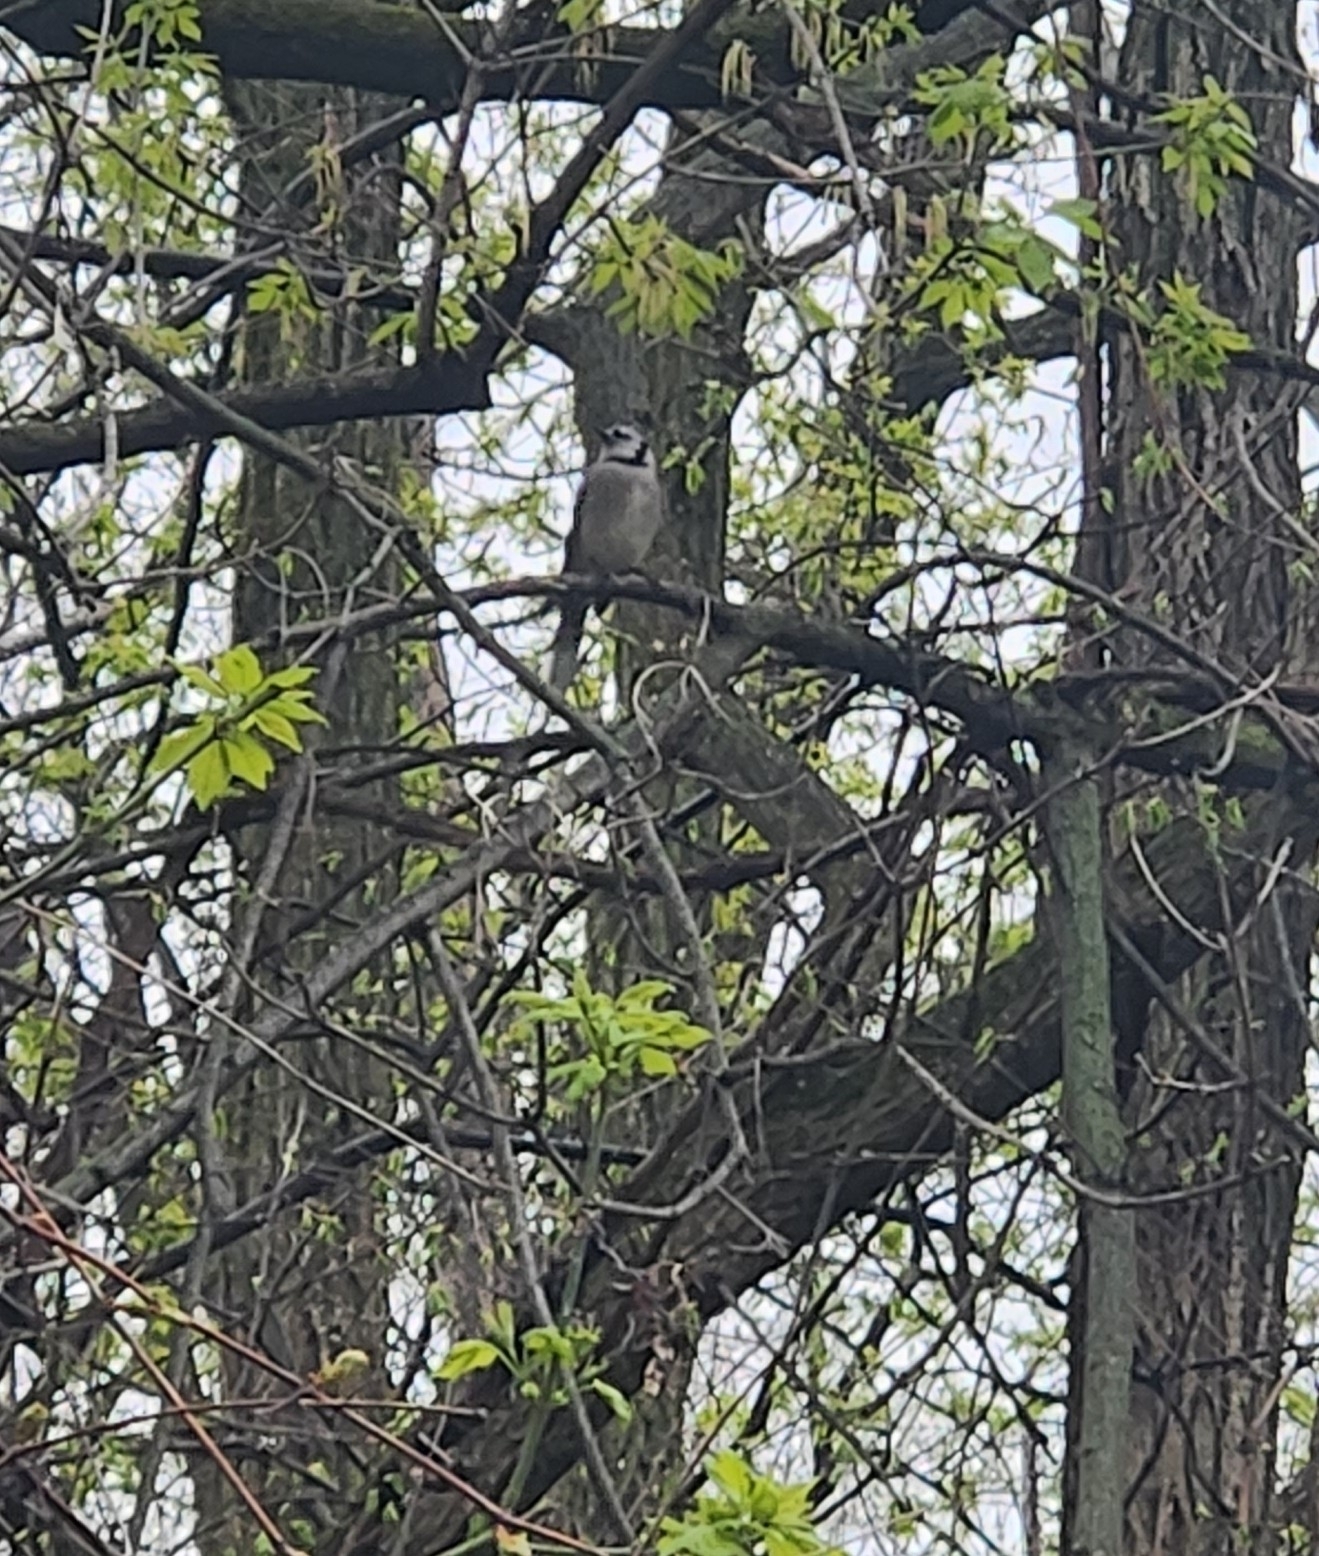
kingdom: Animalia
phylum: Chordata
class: Aves
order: Passeriformes
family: Corvidae
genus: Cyanocitta
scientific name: Cyanocitta cristata
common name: Blue jay
